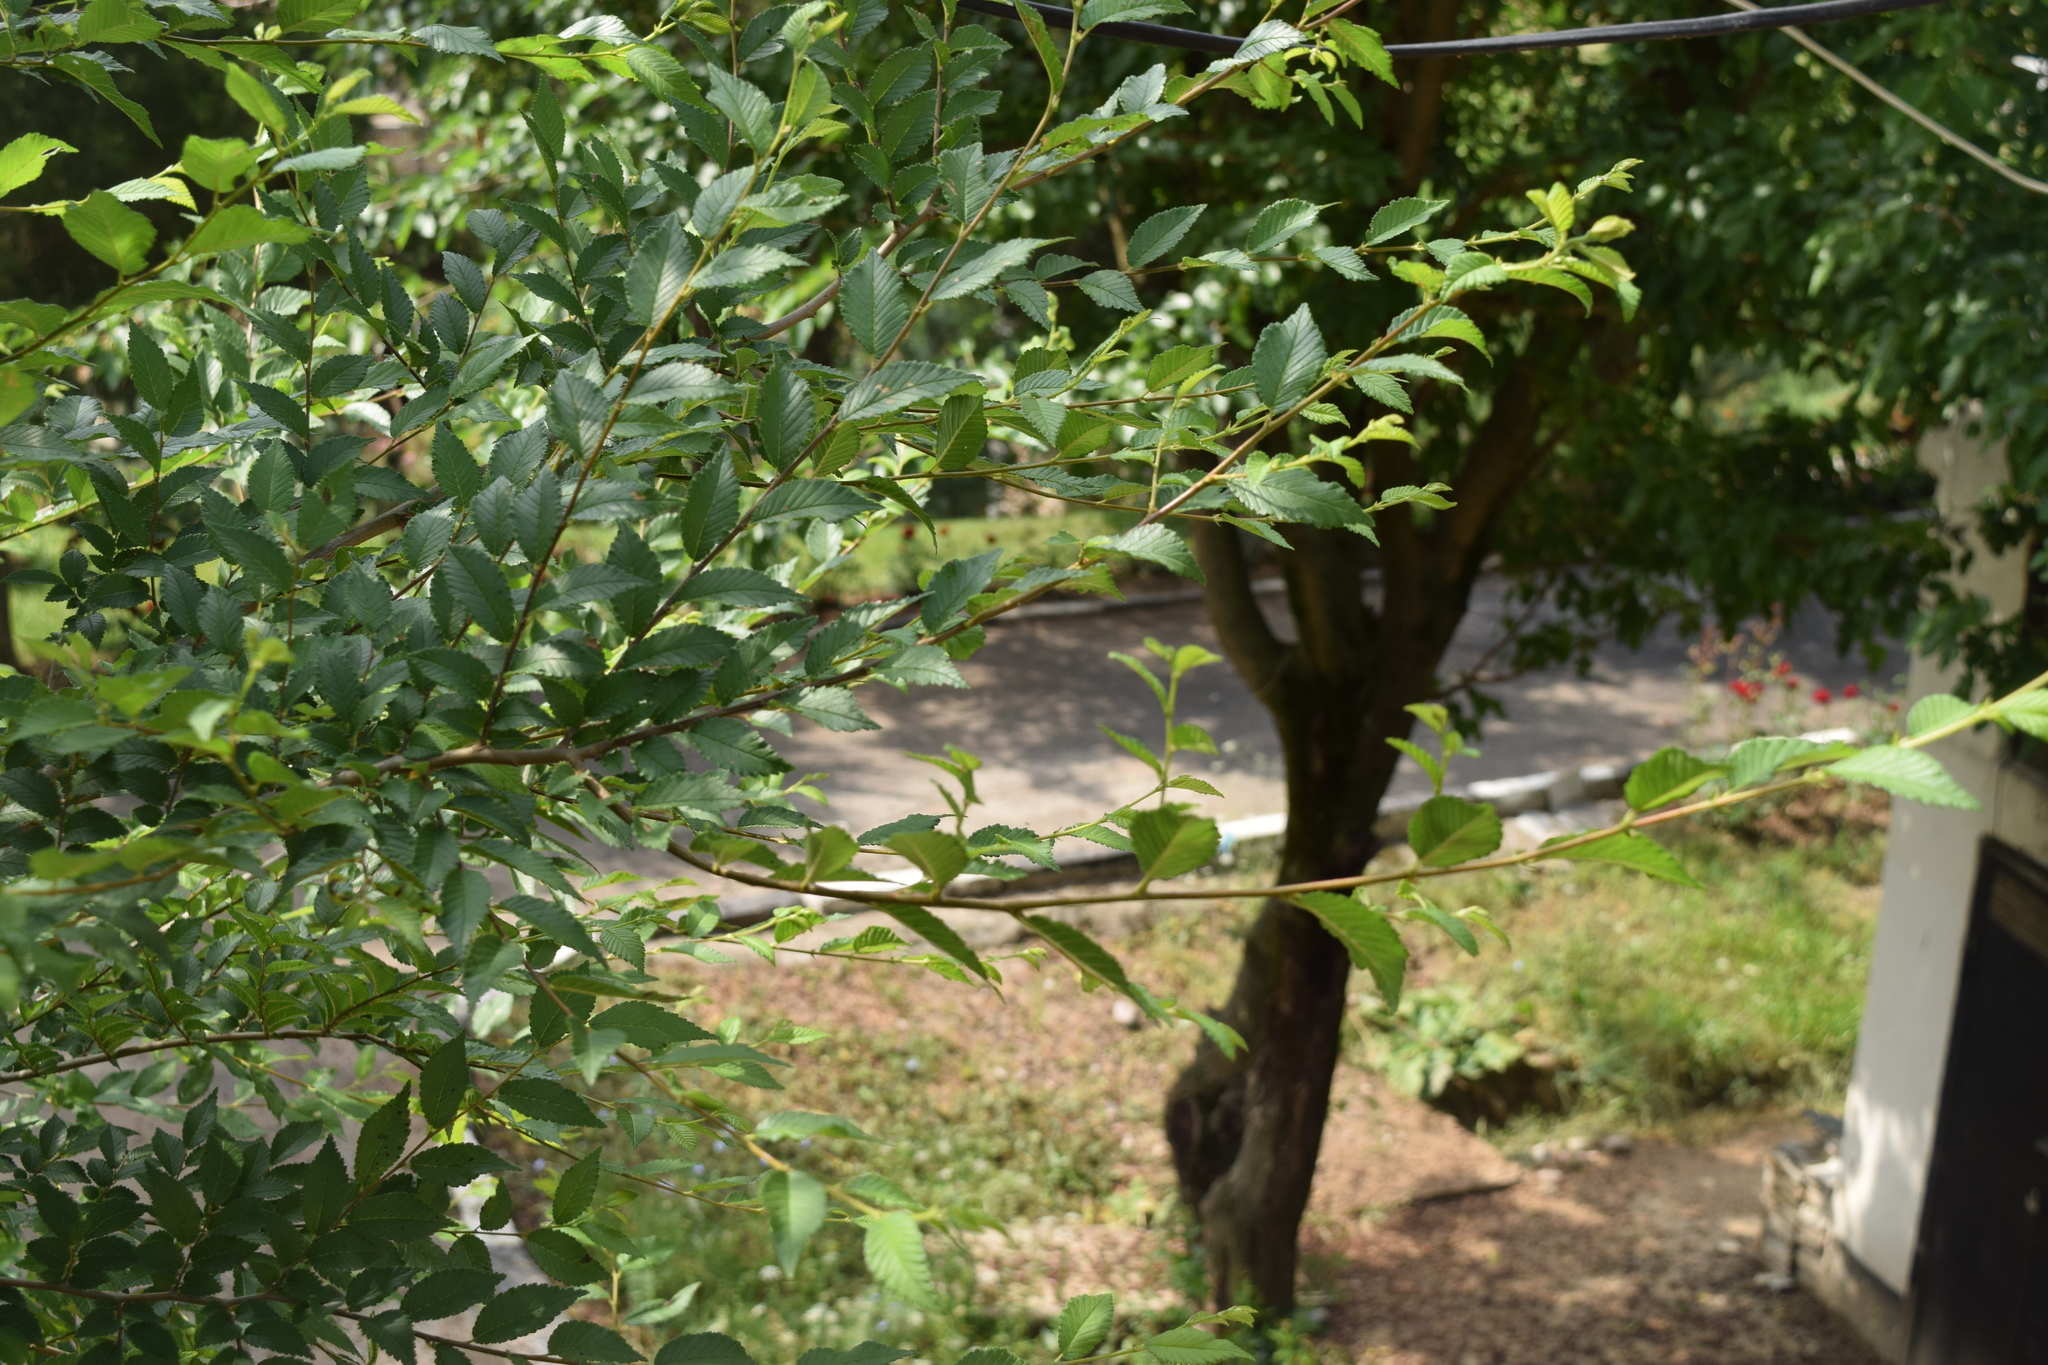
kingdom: Plantae
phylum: Tracheophyta
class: Magnoliopsida
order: Rosales
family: Ulmaceae
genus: Ulmus
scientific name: Ulmus parvifolia
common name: Chinese elm
